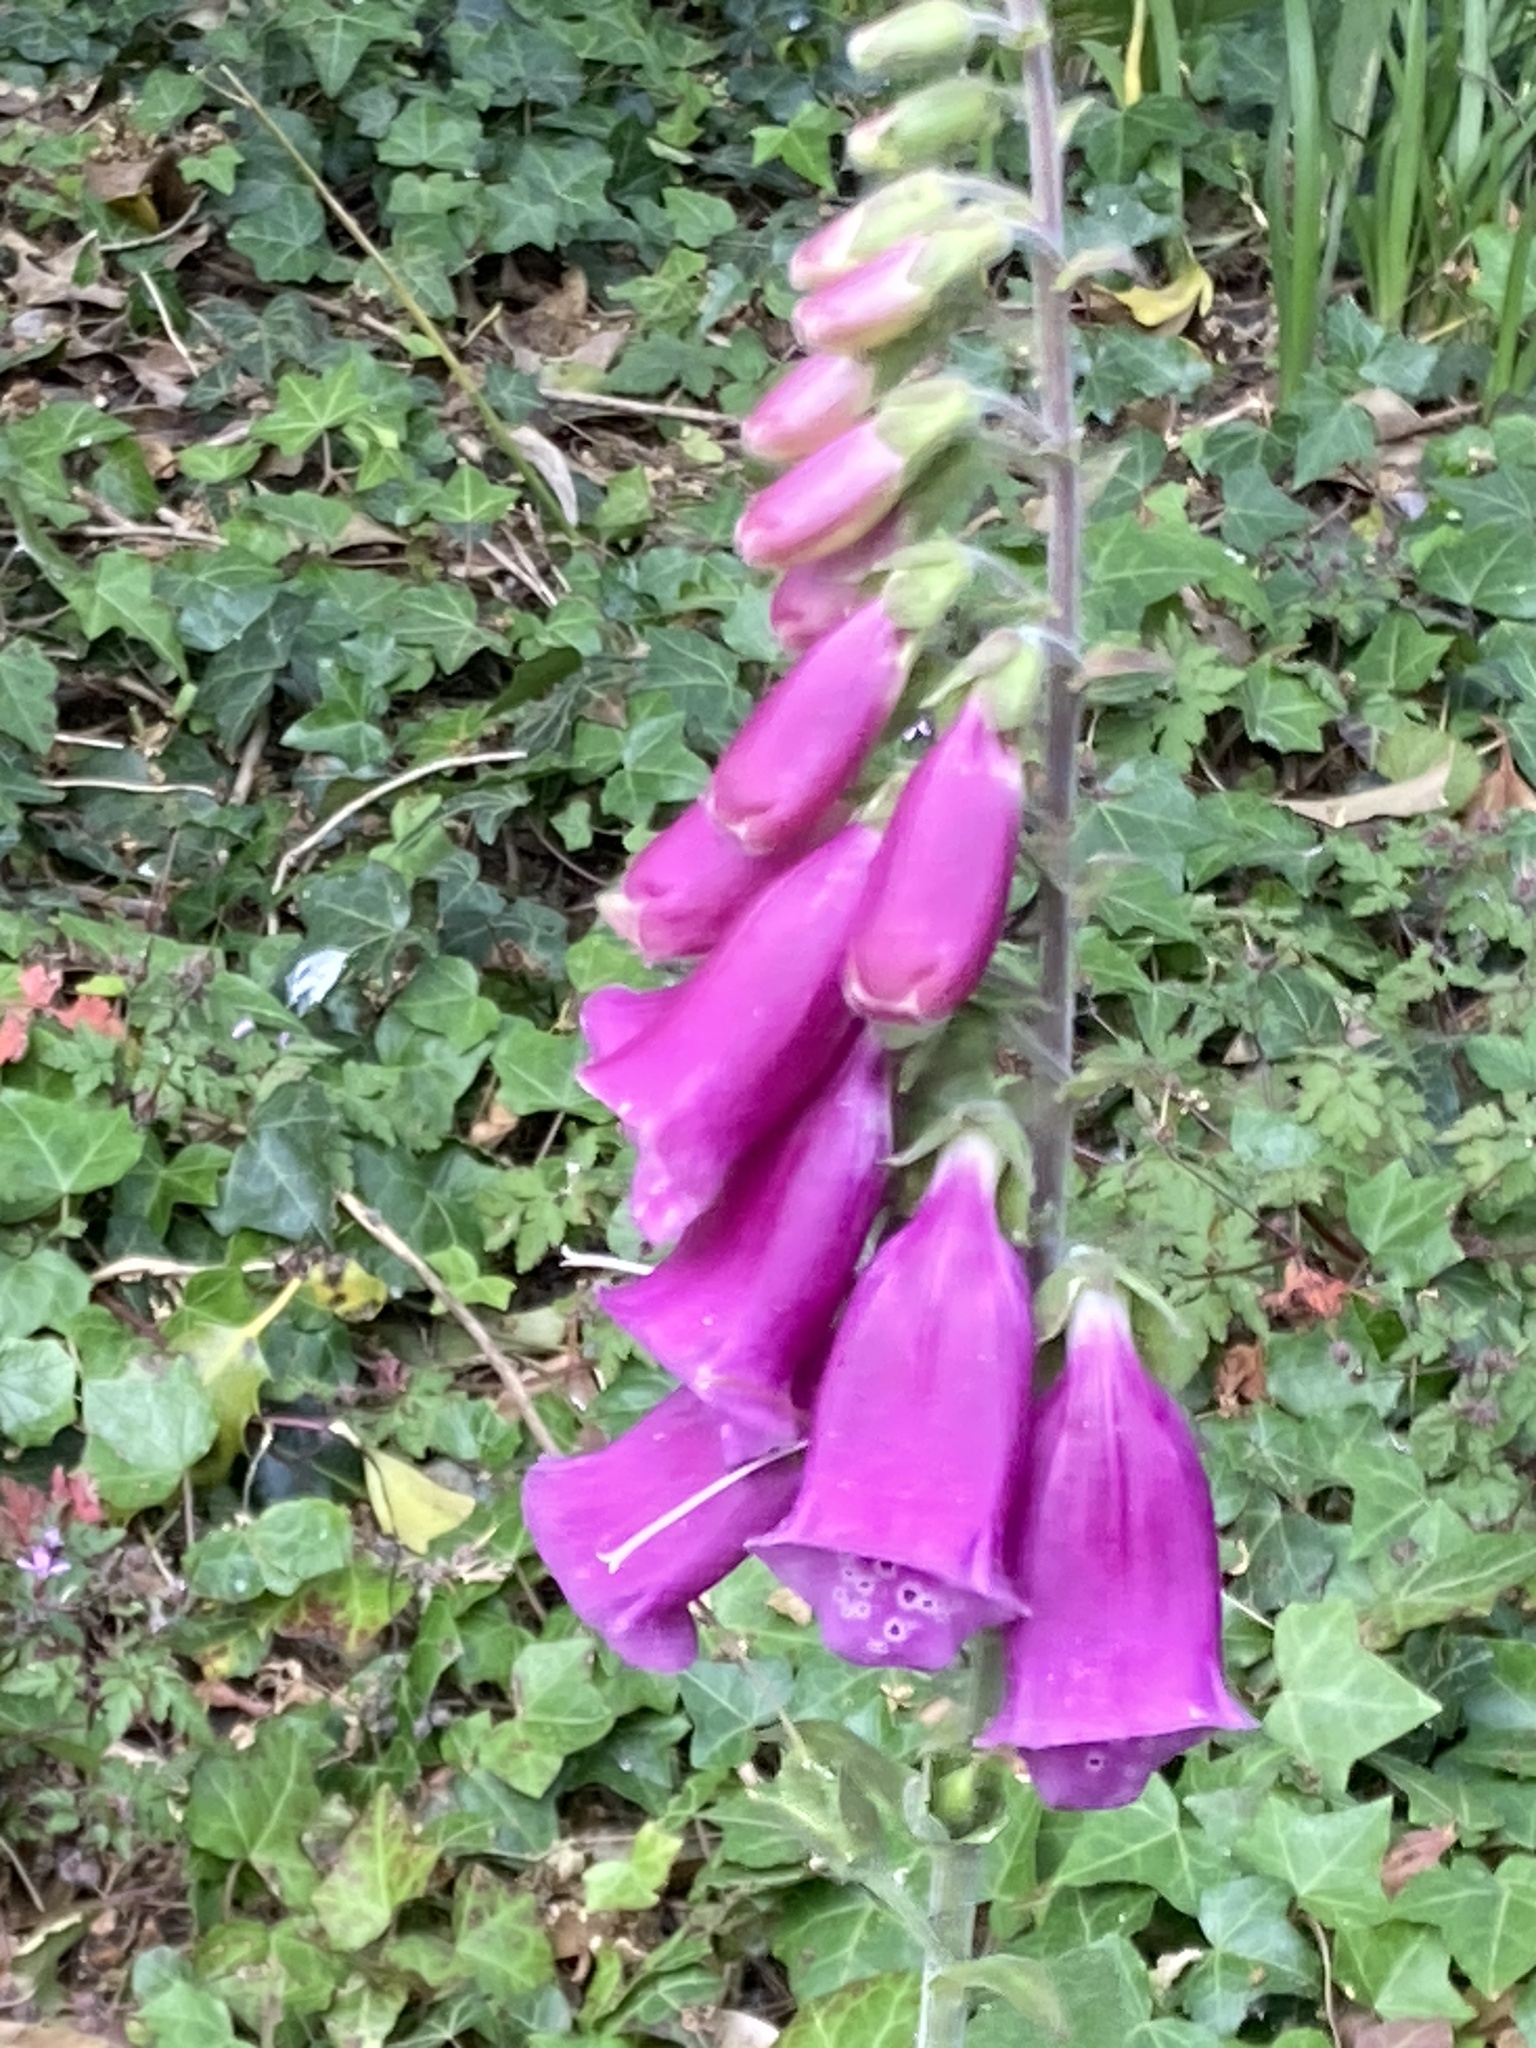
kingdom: Plantae
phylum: Tracheophyta
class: Magnoliopsida
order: Lamiales
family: Plantaginaceae
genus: Digitalis
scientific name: Digitalis purpurea
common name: Foxglove
